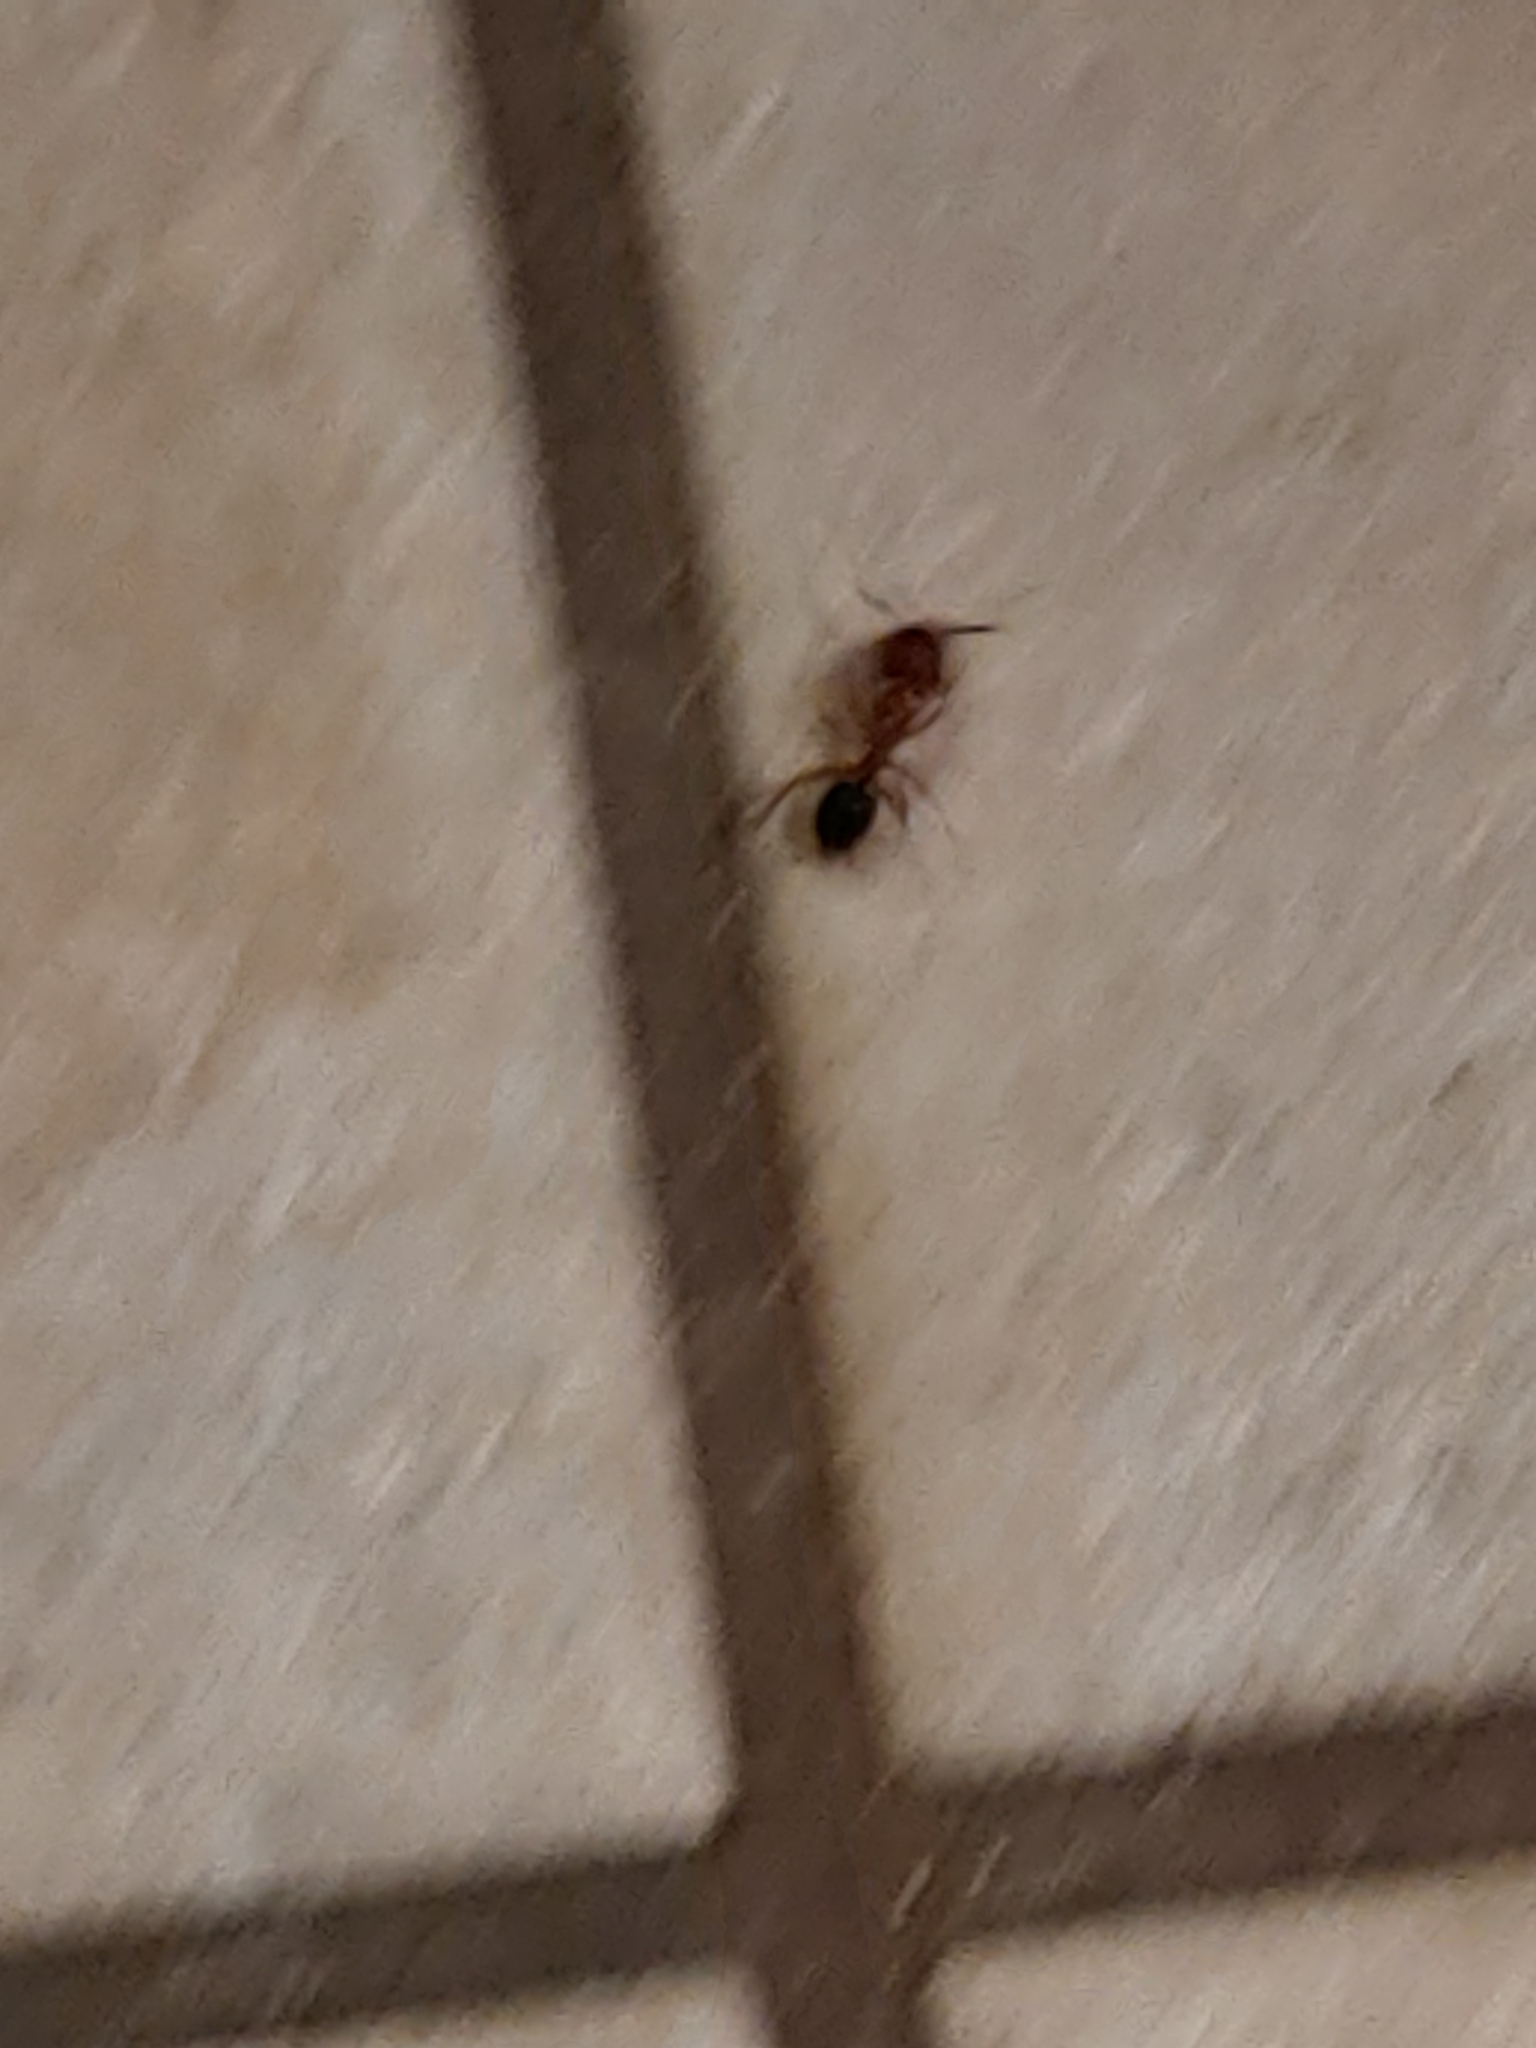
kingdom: Animalia
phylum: Arthropoda
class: Insecta
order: Hymenoptera
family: Formicidae
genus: Camponotus
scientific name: Camponotus floridanus
